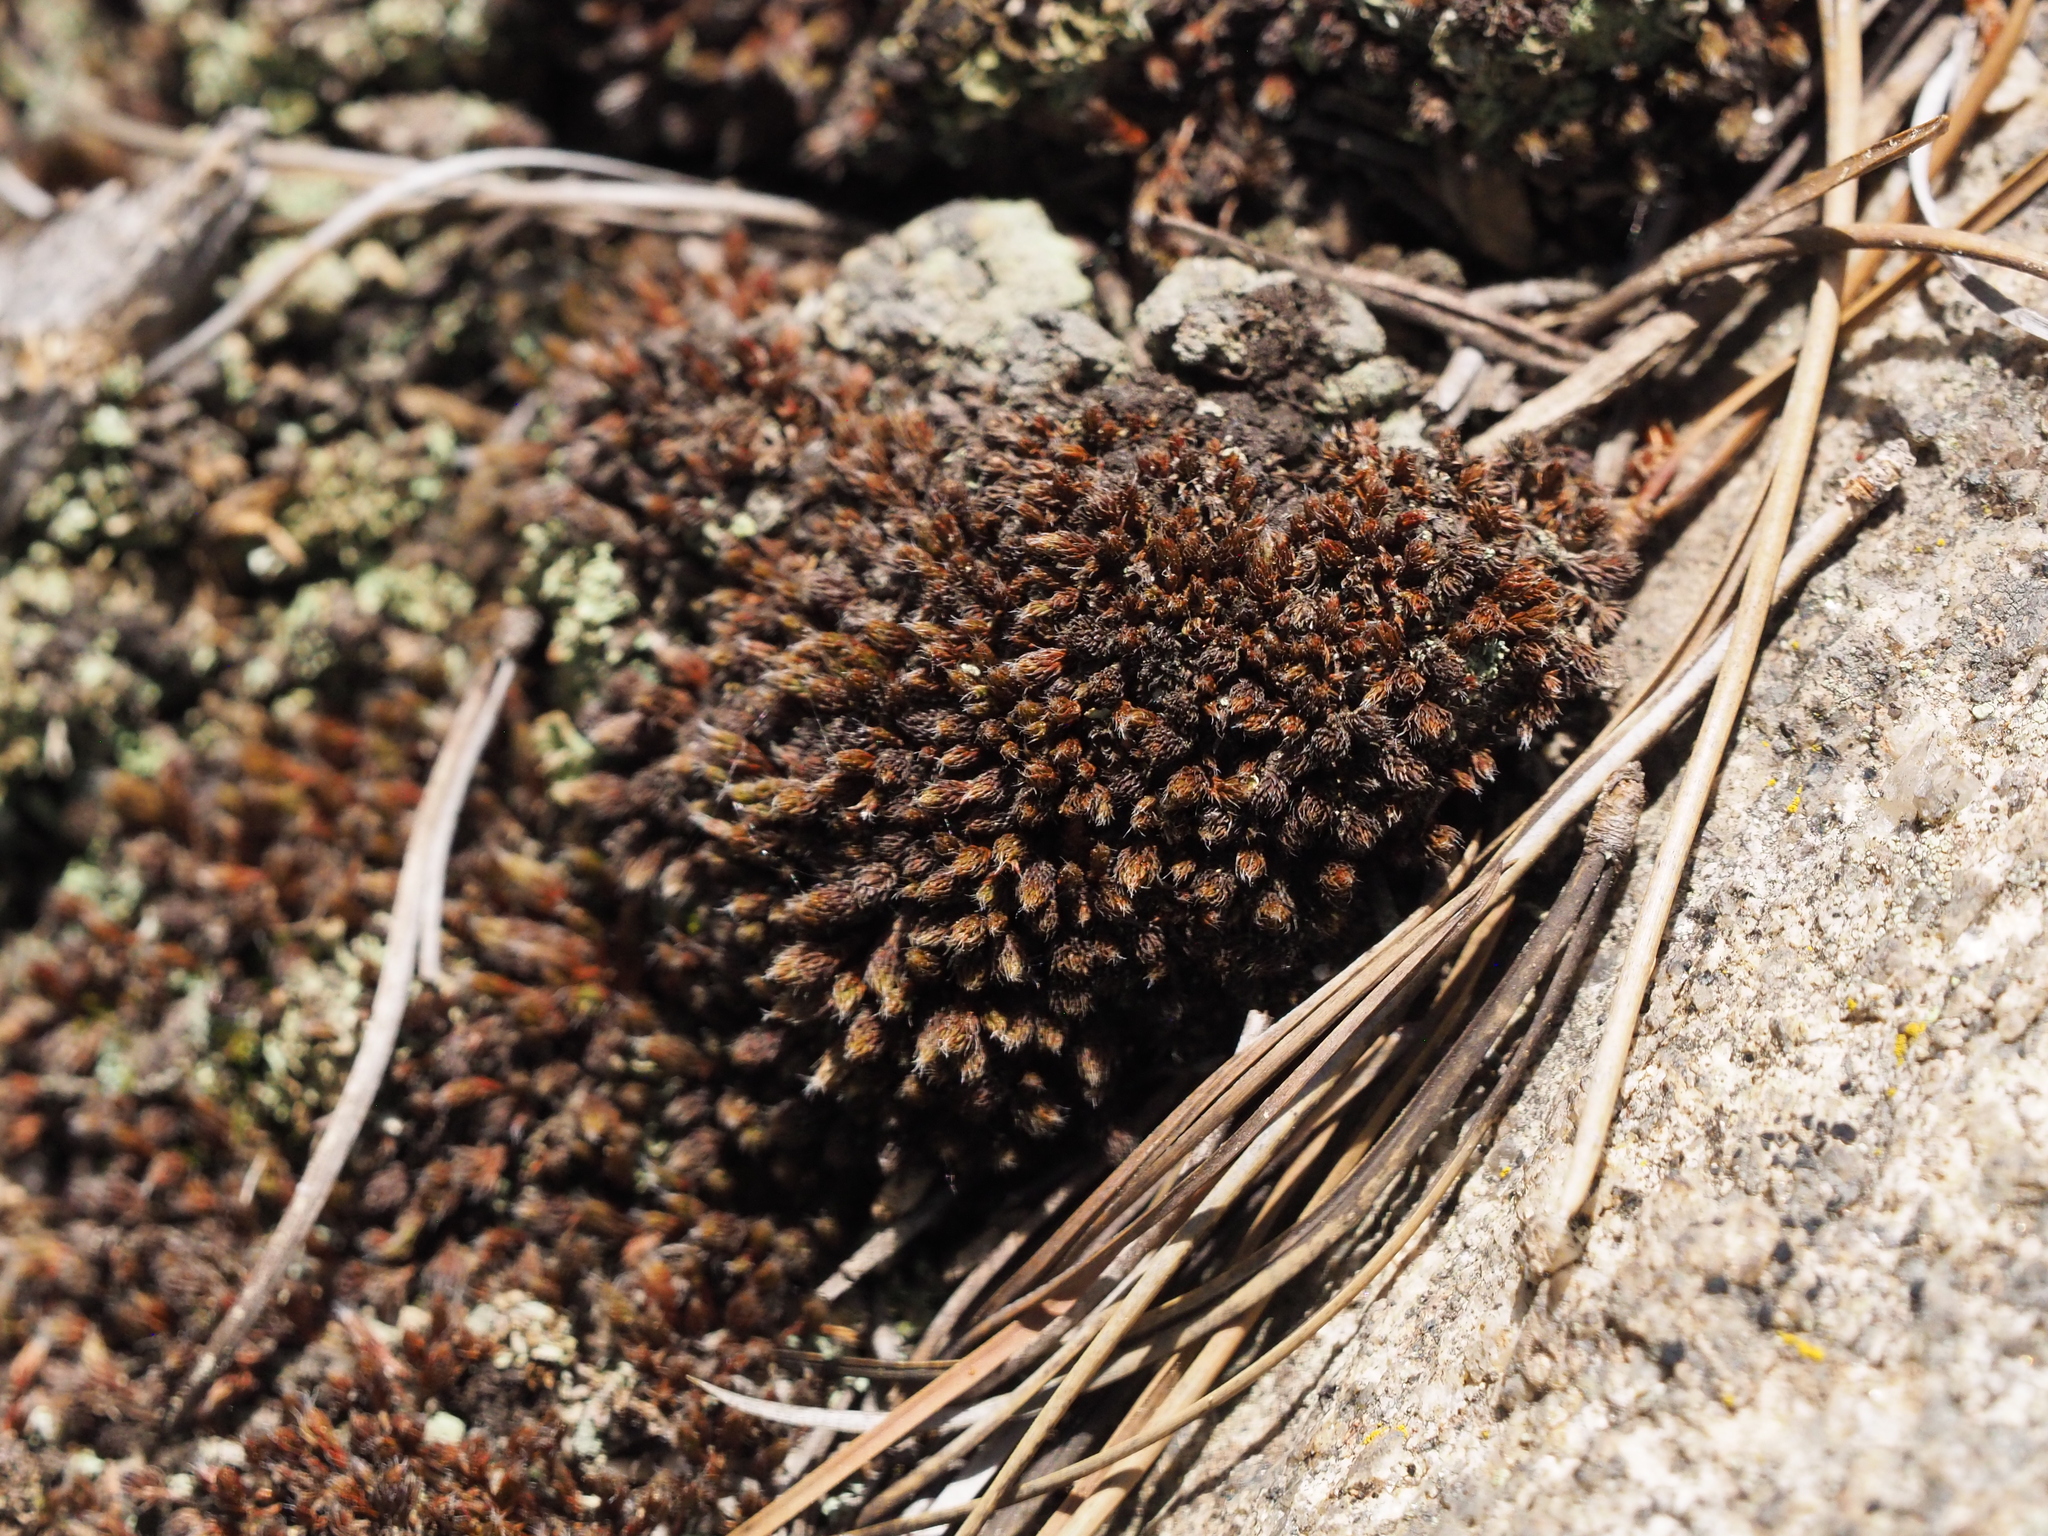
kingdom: Plantae
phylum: Bryophyta
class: Polytrichopsida
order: Polytrichales
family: Polytrichaceae
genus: Polytrichum
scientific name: Polytrichum piliferum
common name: Bristly haircap
